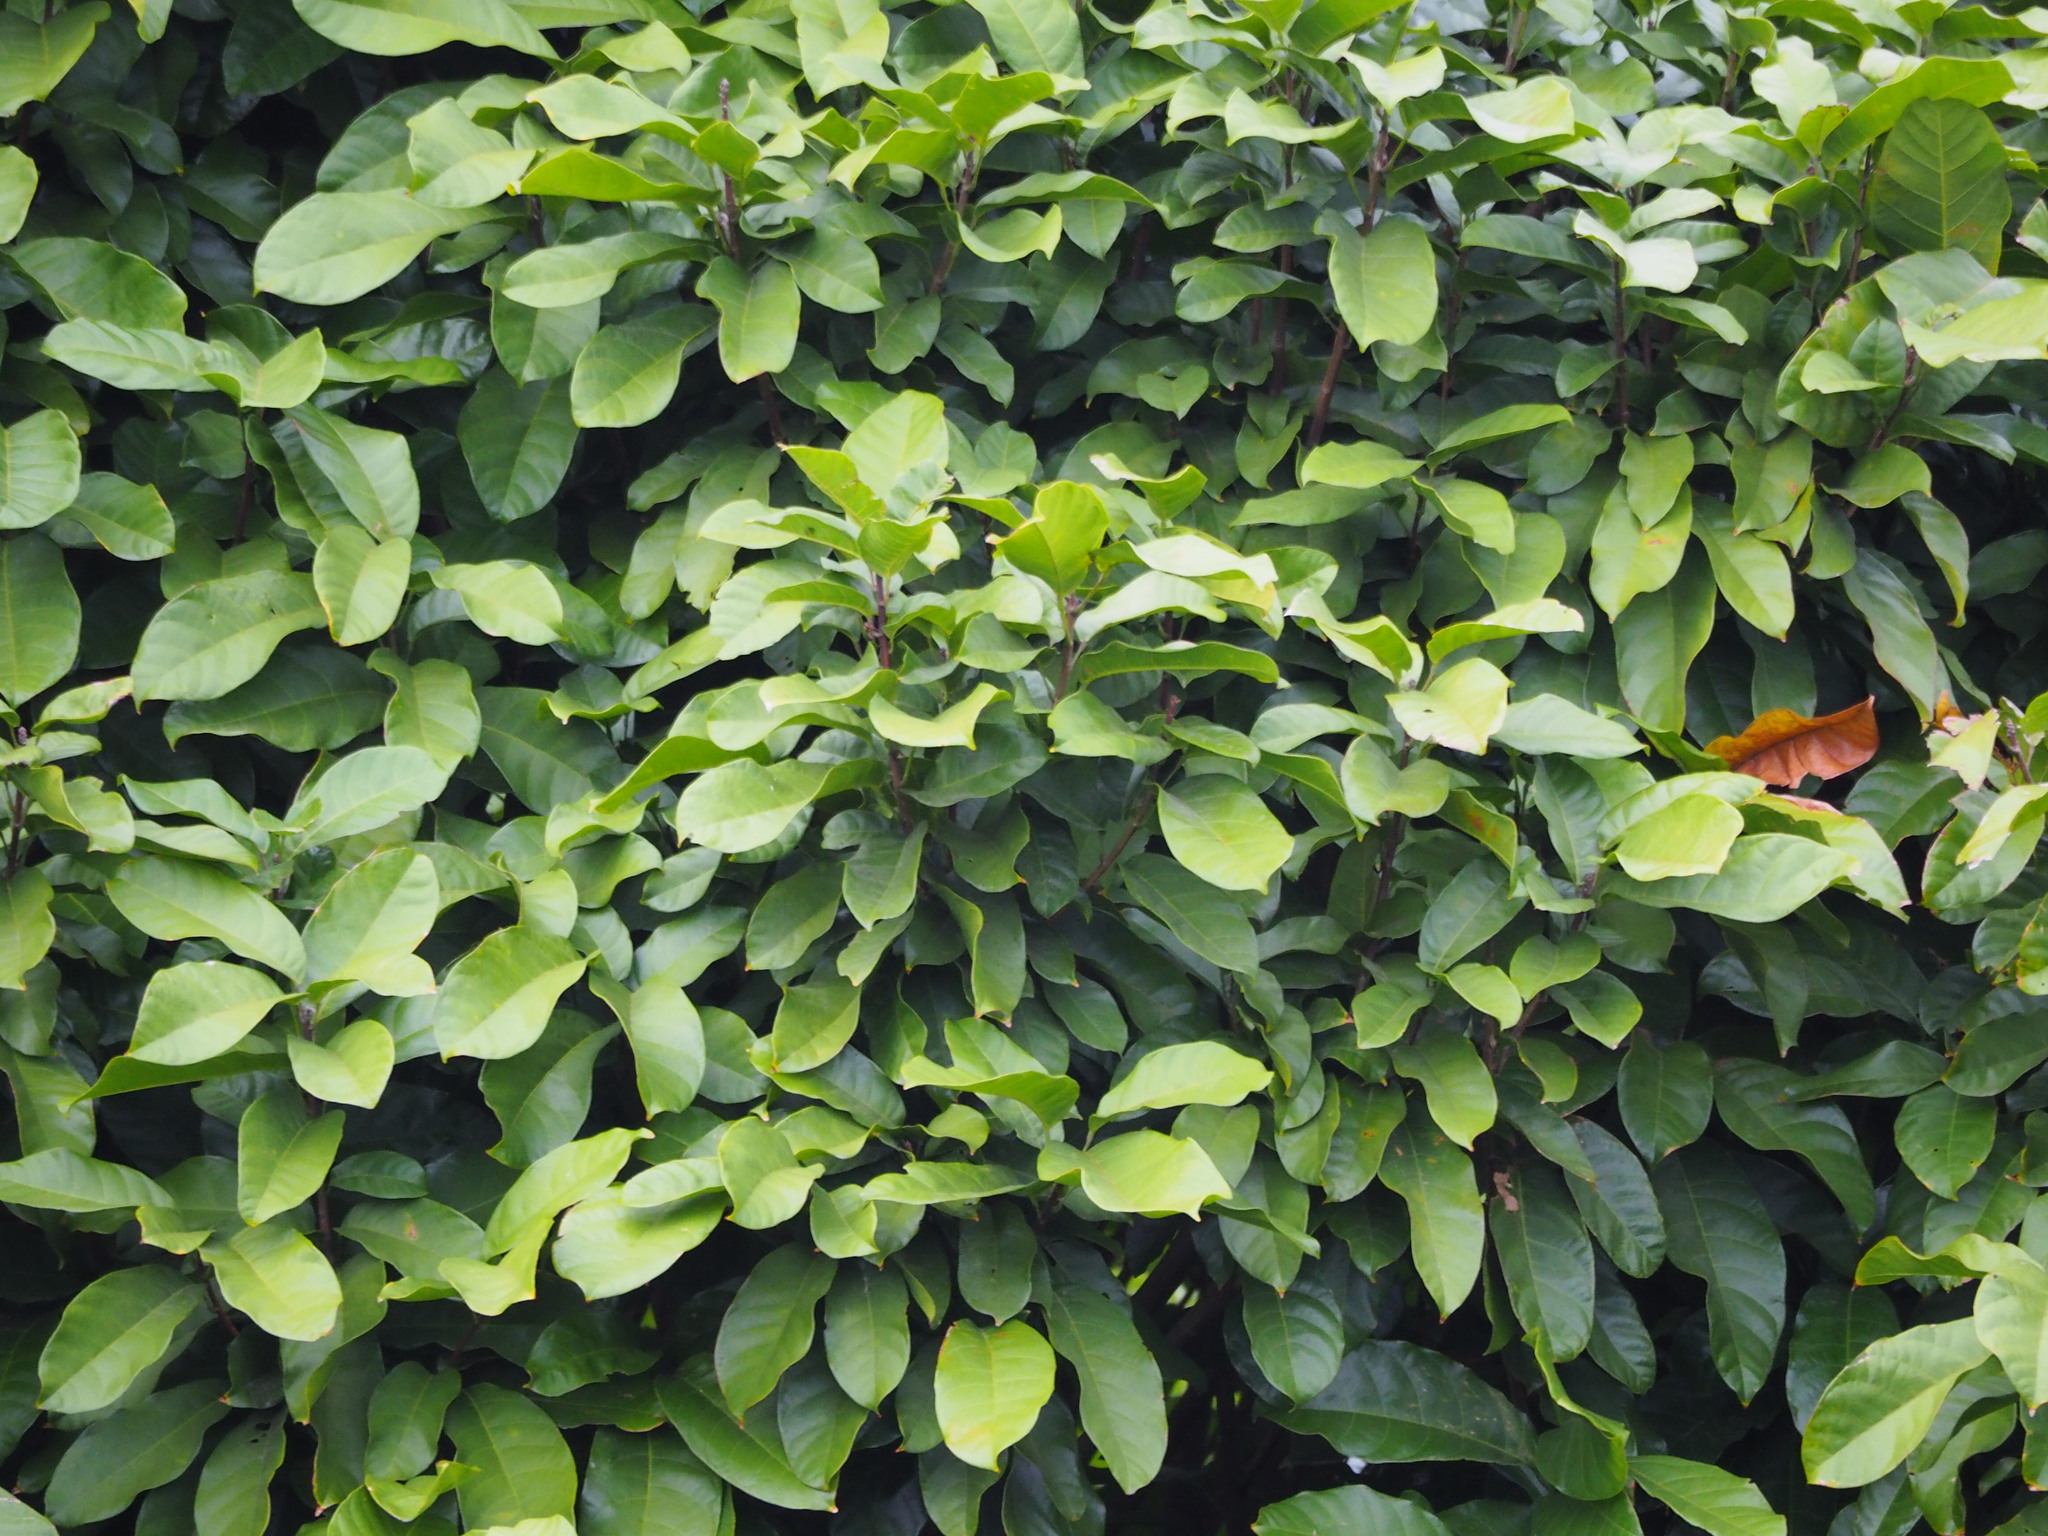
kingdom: Plantae
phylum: Tracheophyta
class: Magnoliopsida
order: Malvales
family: Malvaceae
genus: Sterculia
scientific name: Sterculia monosperma
